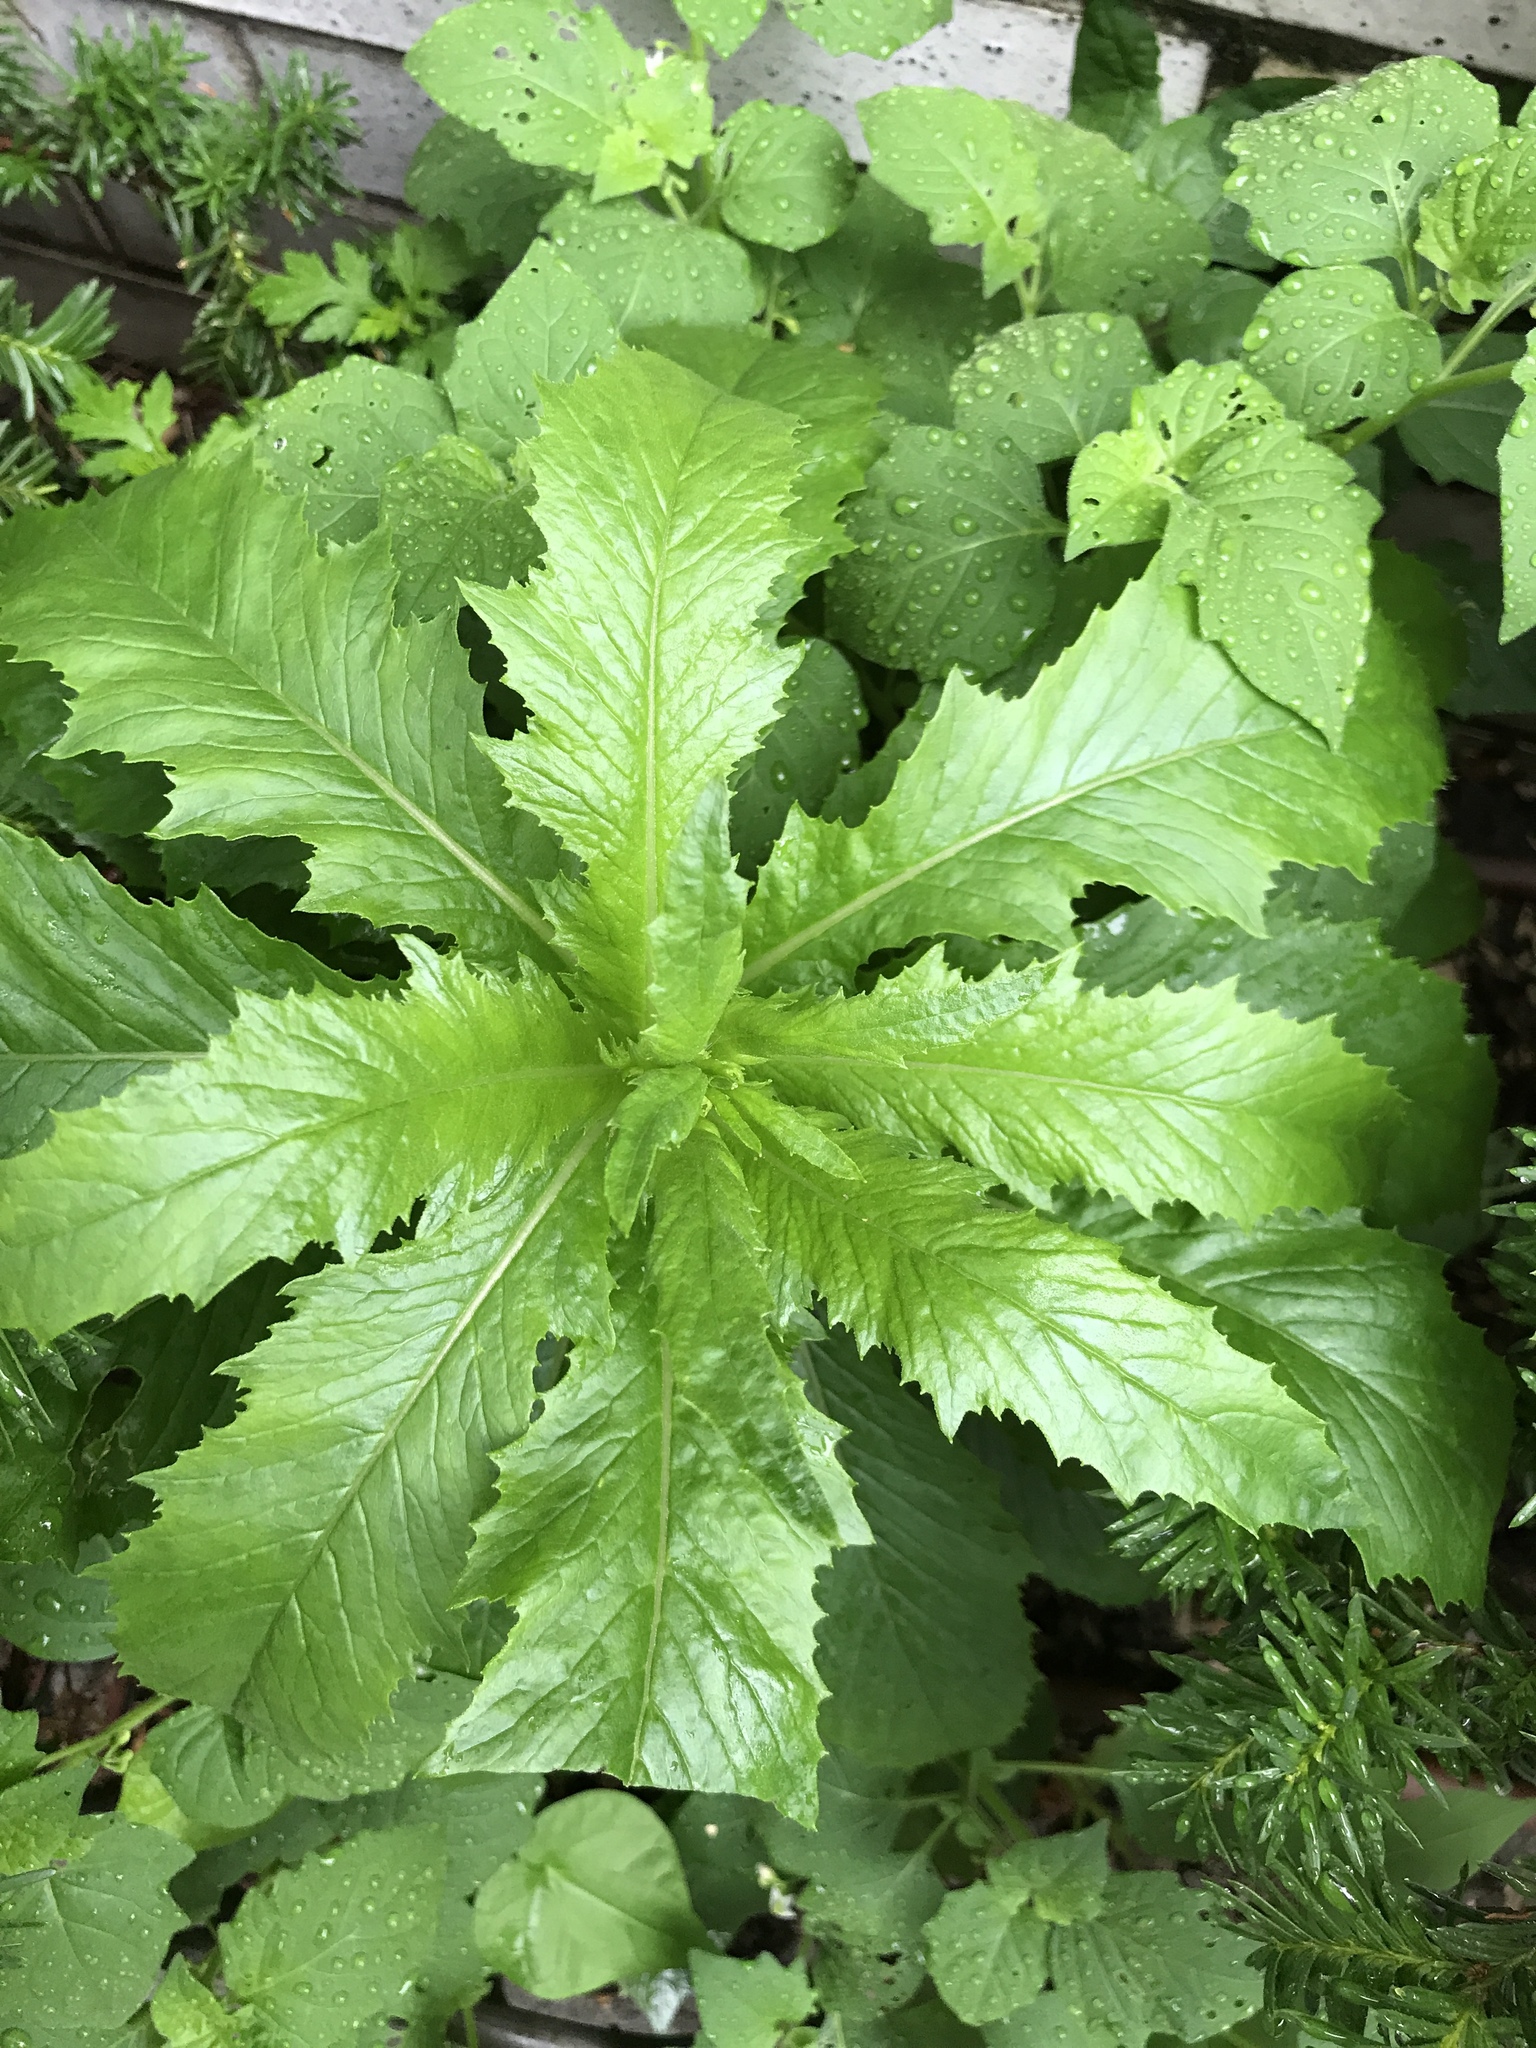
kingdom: Plantae
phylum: Tracheophyta
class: Magnoliopsida
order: Asterales
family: Asteraceae
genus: Erechtites
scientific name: Erechtites hieraciifolius
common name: American burnweed
